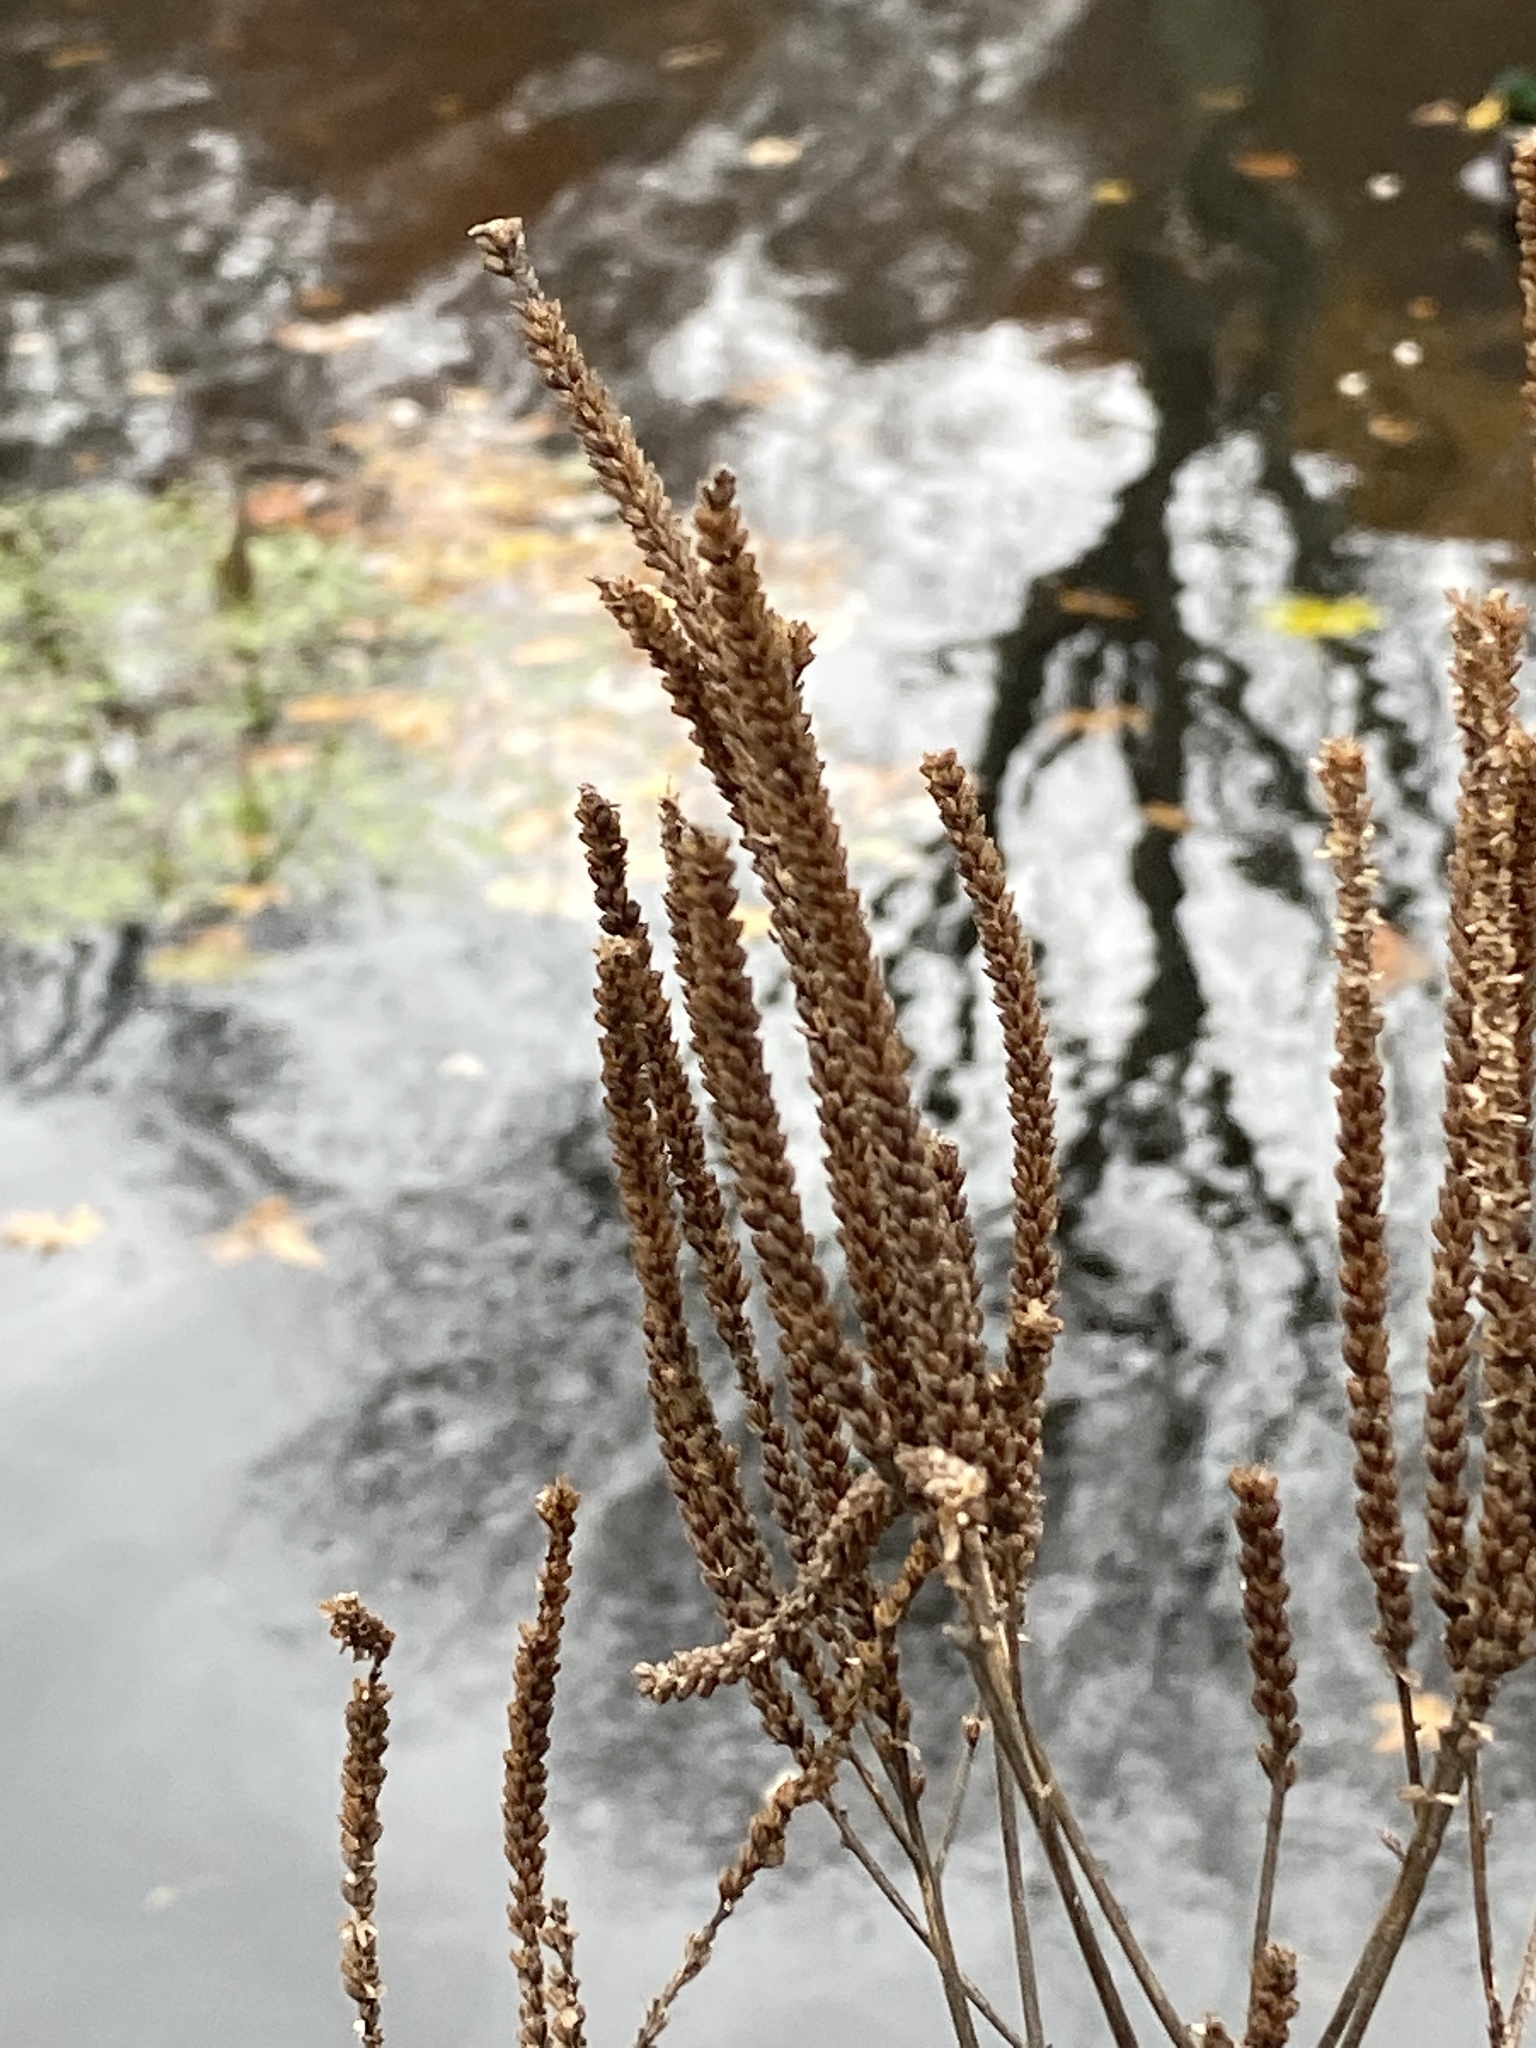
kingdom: Plantae
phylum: Tracheophyta
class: Magnoliopsida
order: Lamiales
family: Verbenaceae
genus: Verbena
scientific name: Verbena hastata
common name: American blue vervain
